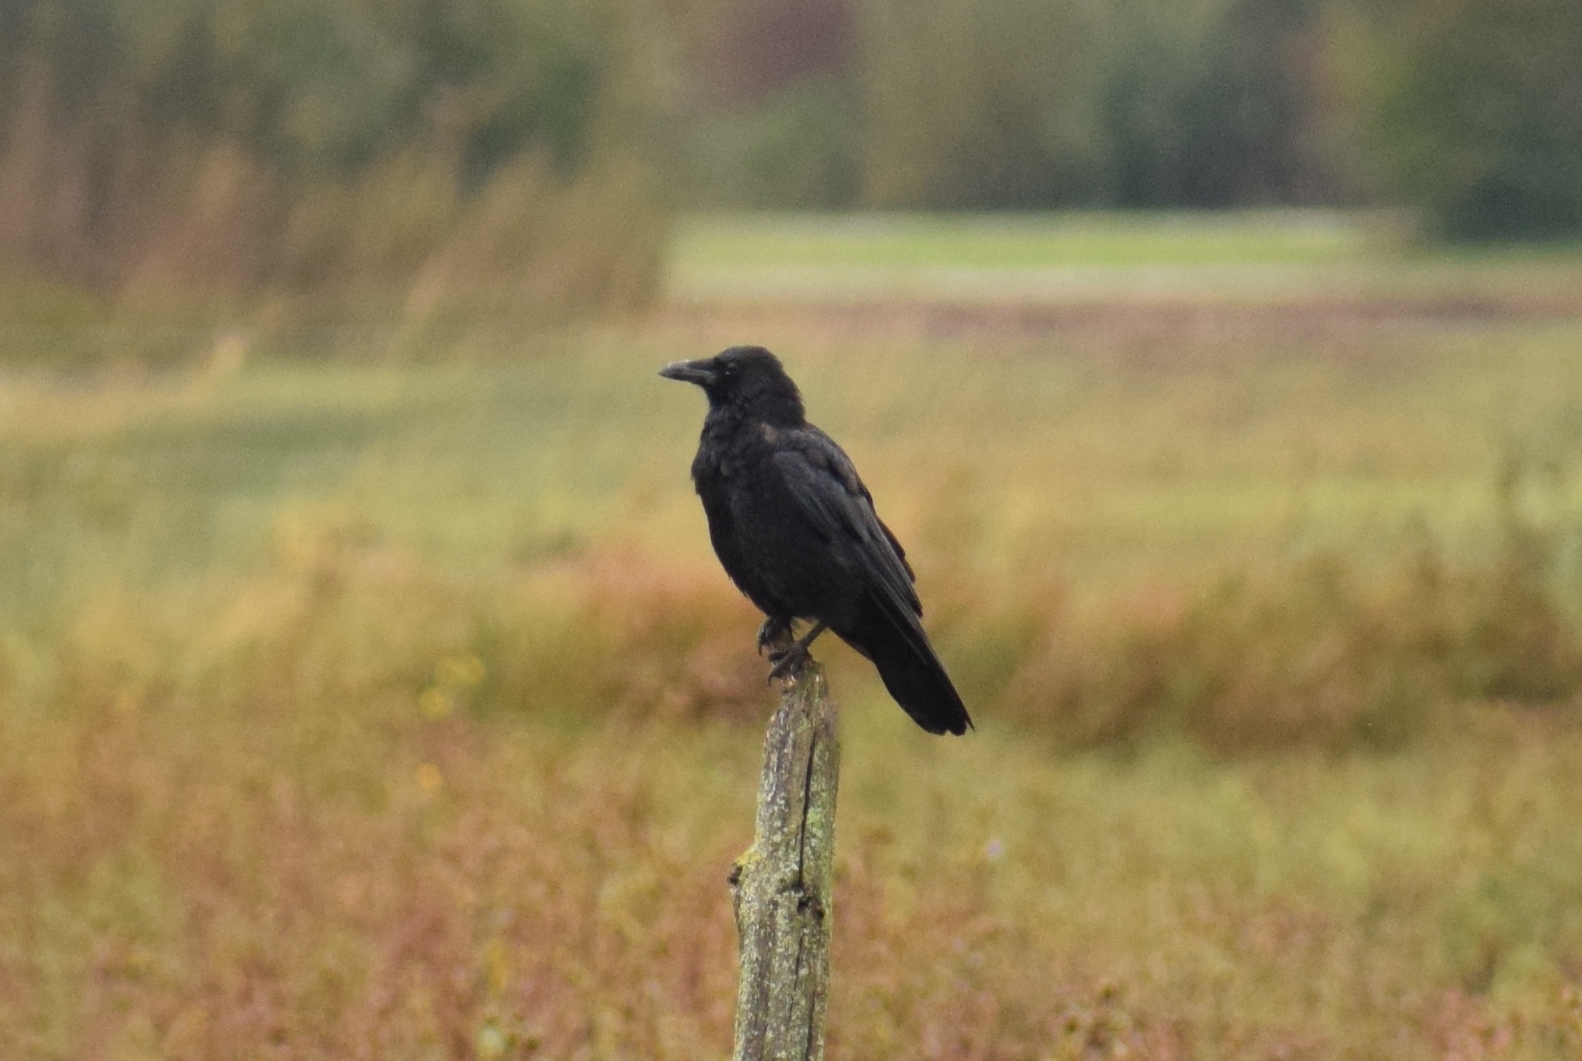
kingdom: Animalia
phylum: Chordata
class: Aves
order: Passeriformes
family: Corvidae
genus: Corvus
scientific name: Corvus corone
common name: Carrion crow
